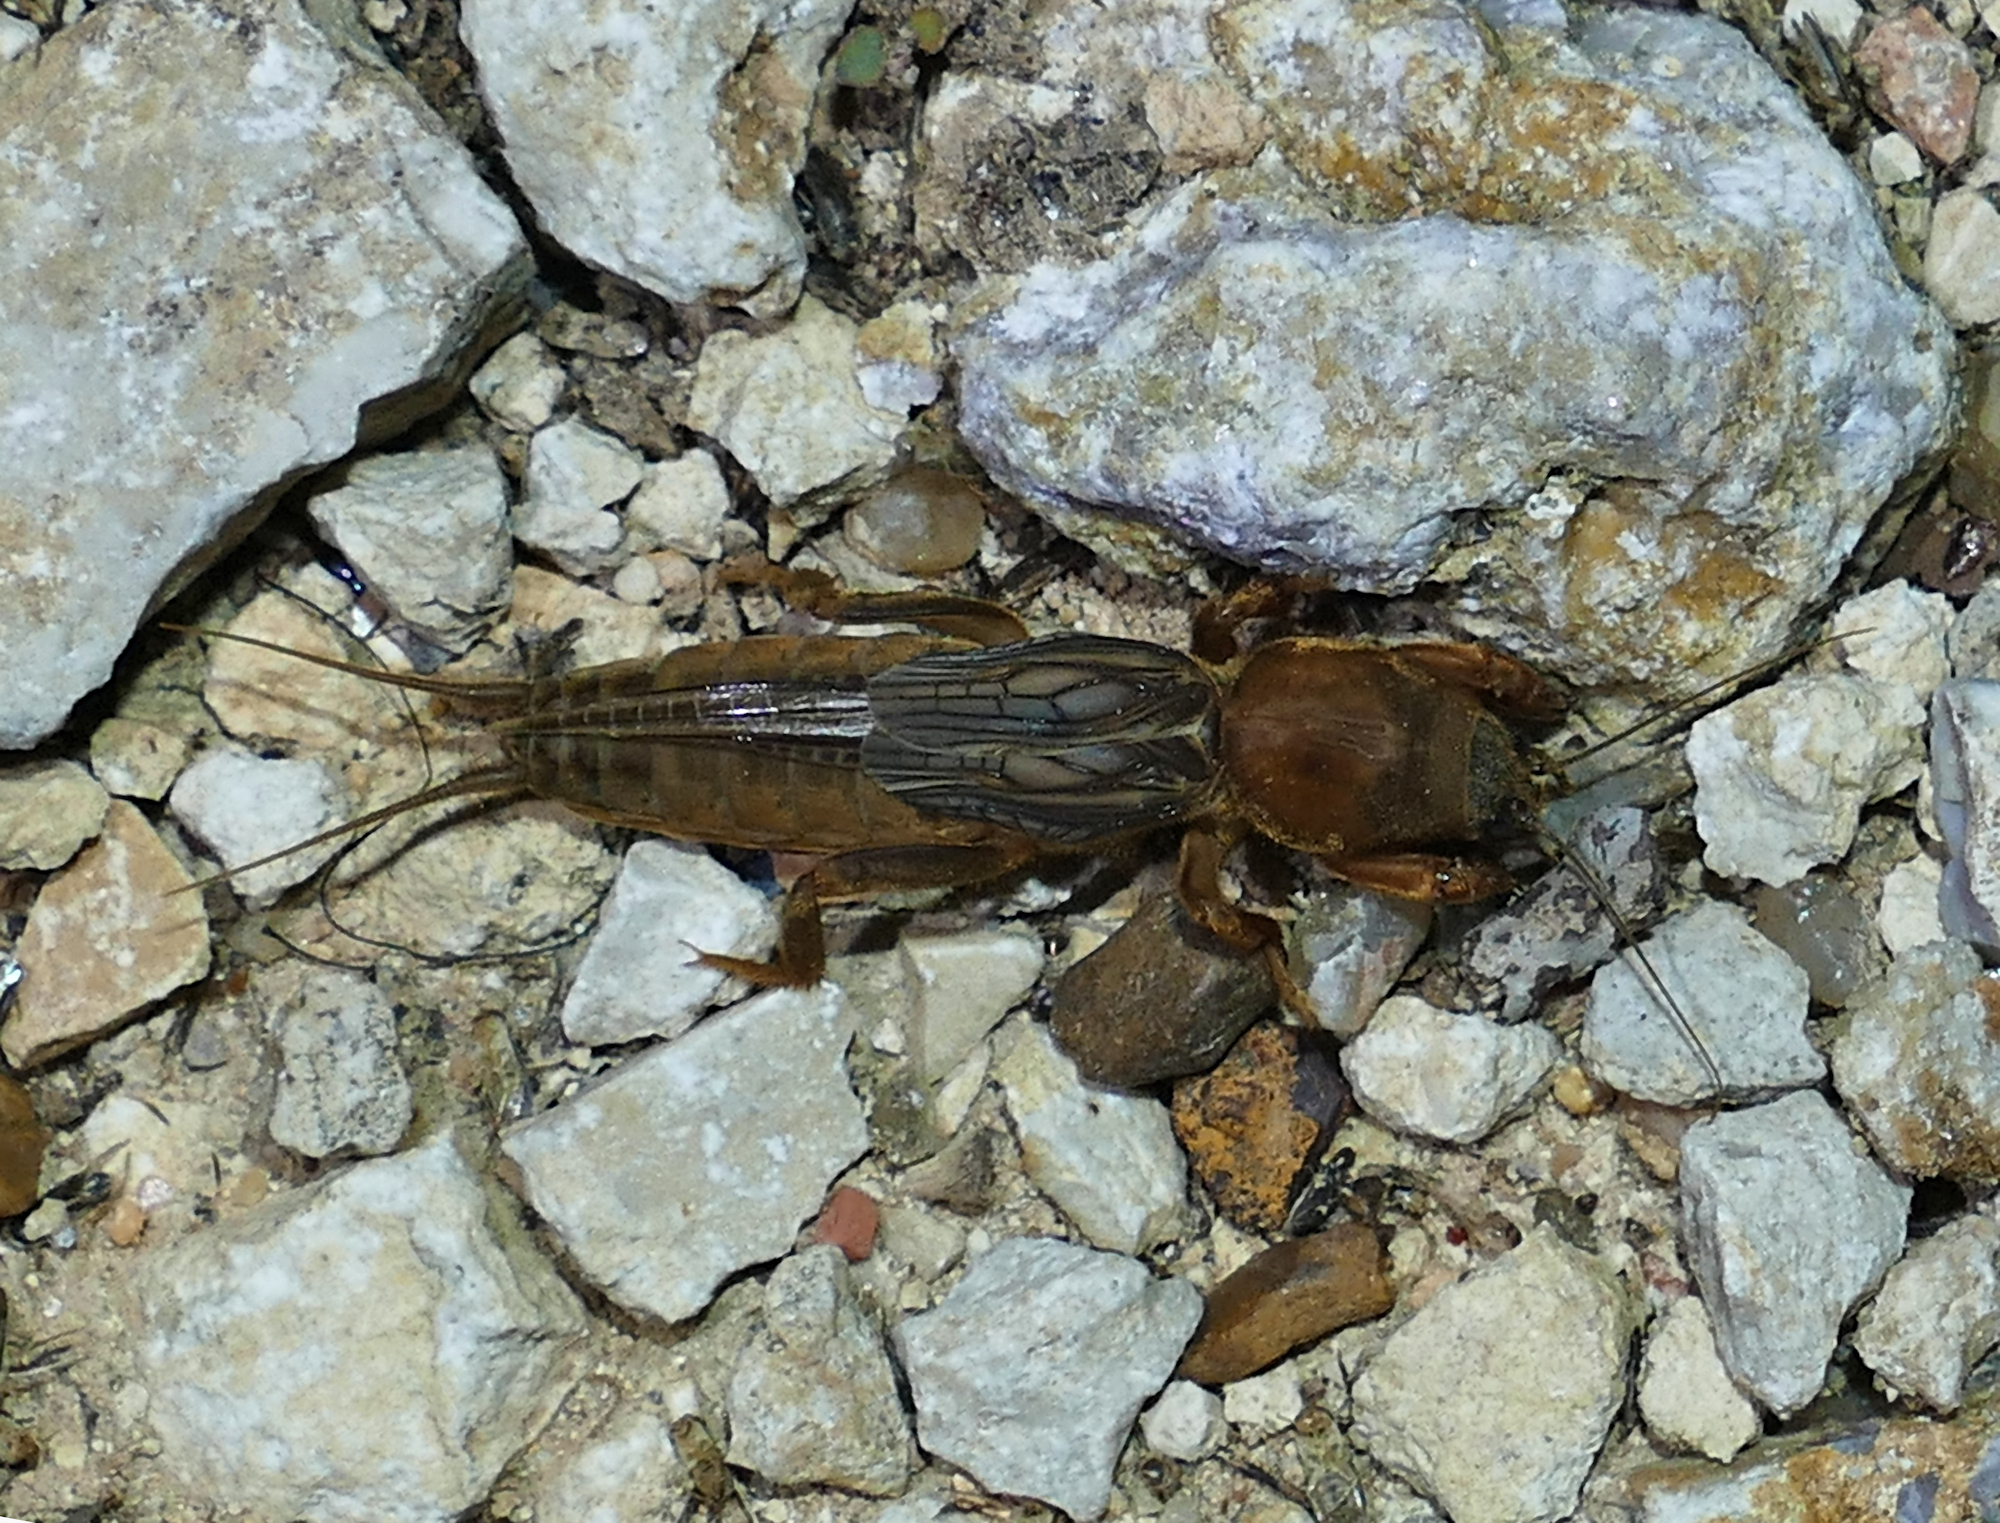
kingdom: Animalia
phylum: Arthropoda
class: Insecta
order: Orthoptera
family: Gryllotalpidae
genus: Neocurtilla
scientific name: Neocurtilla hexadactyla
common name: Northern mole cricket
